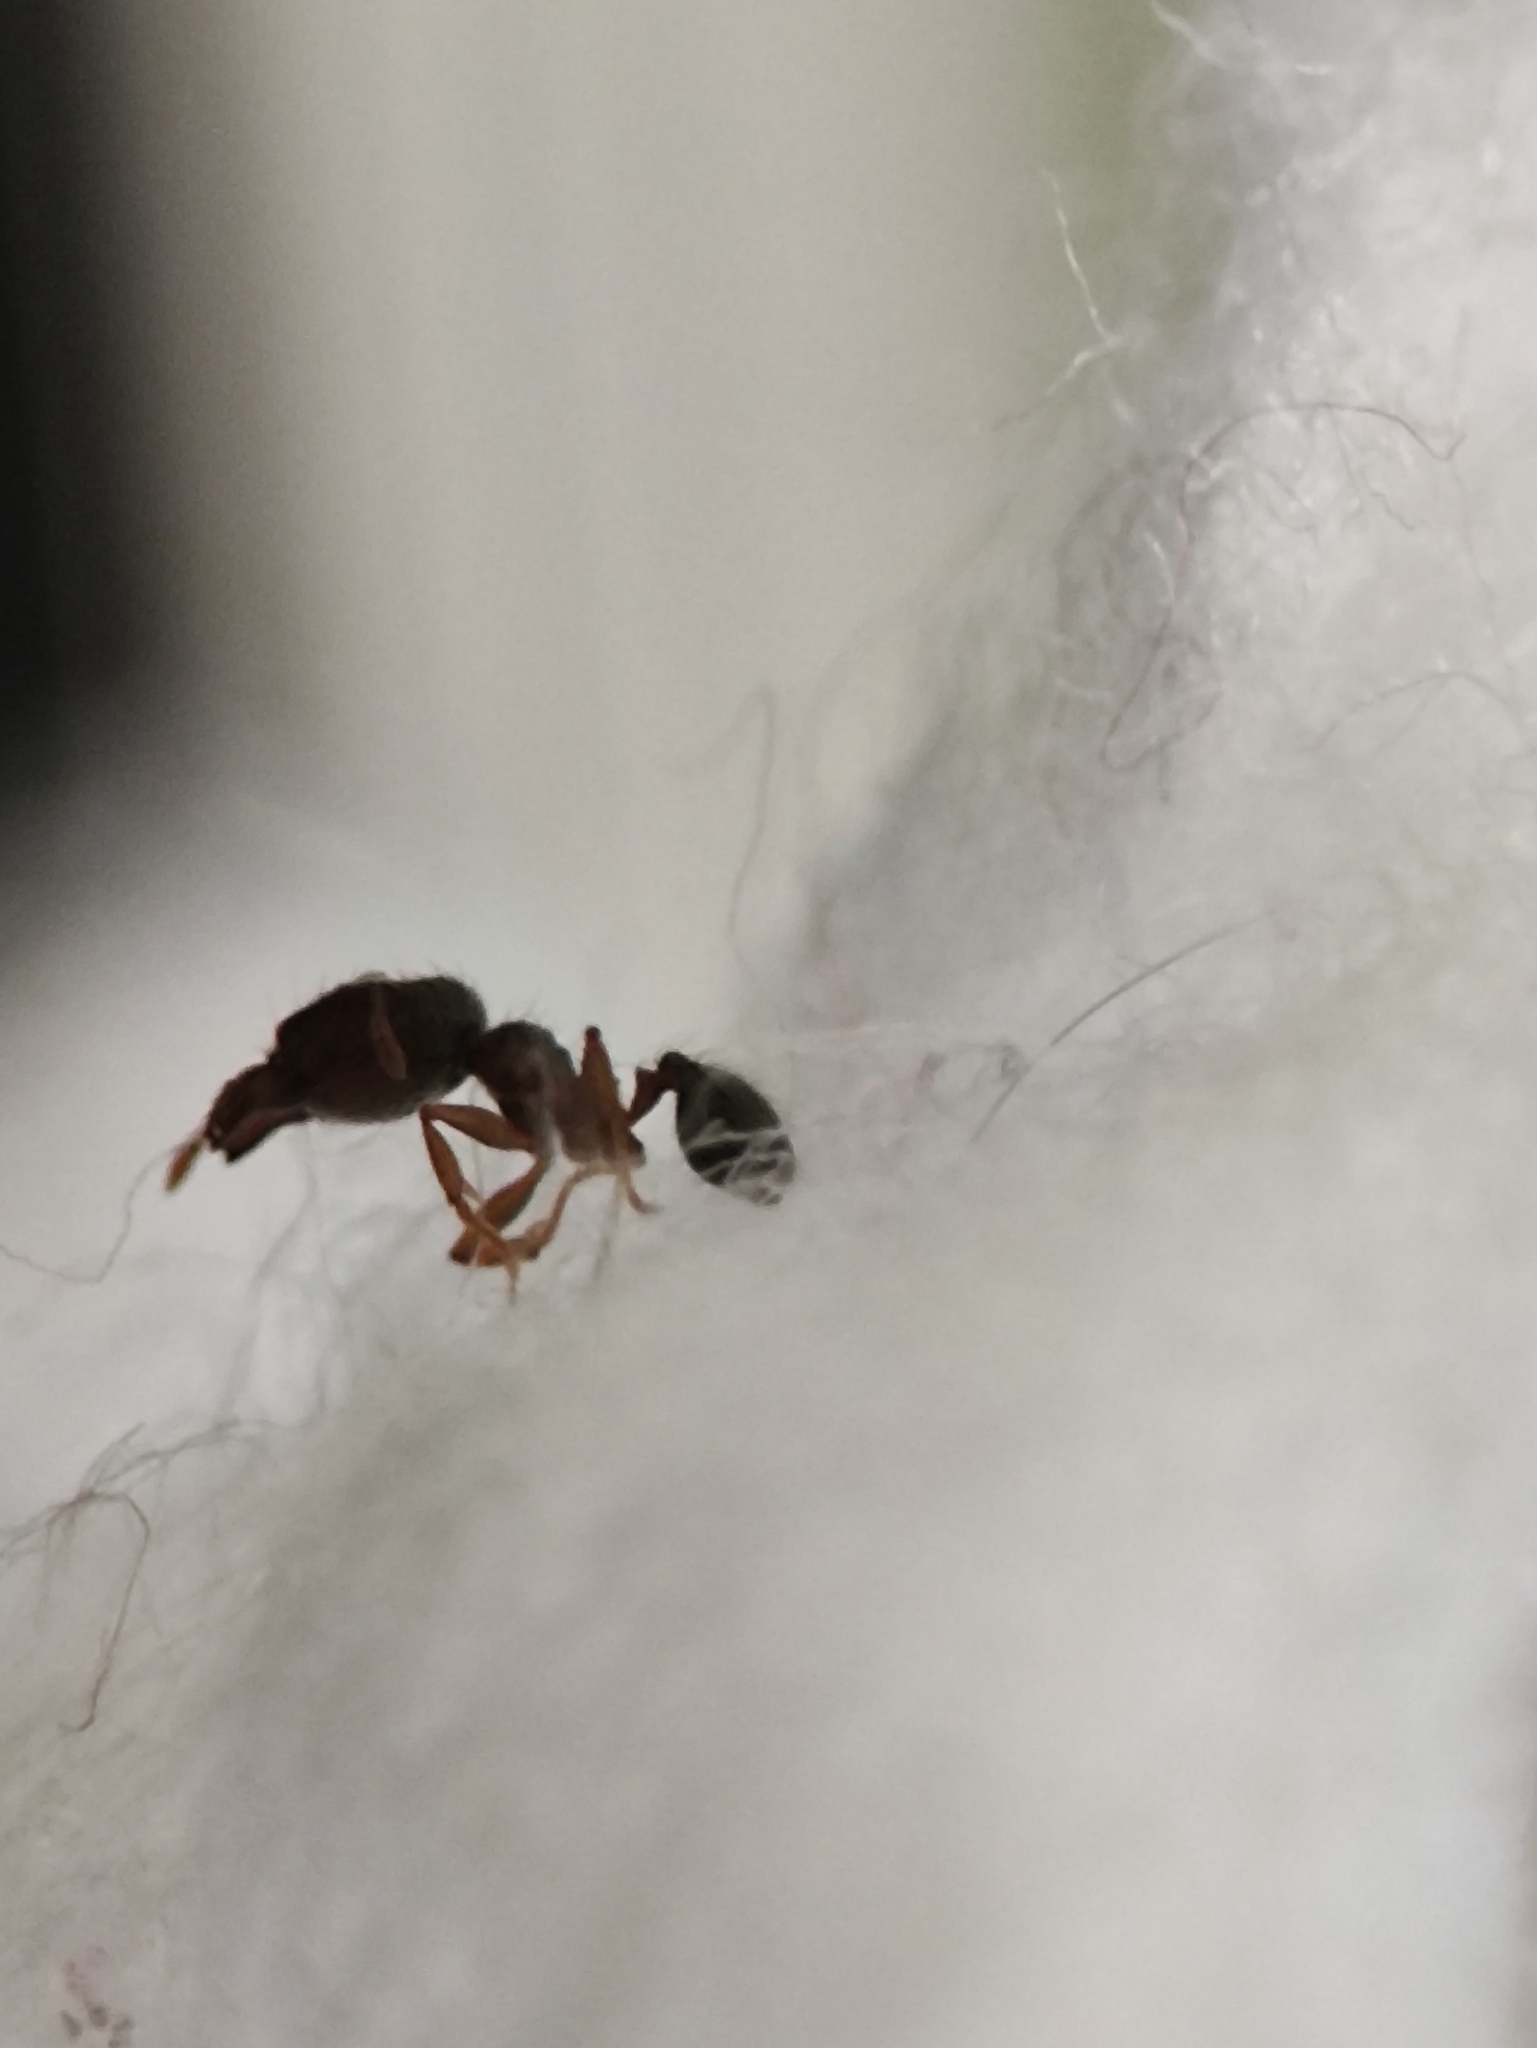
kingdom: Animalia
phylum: Arthropoda
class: Insecta
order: Hymenoptera
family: Formicidae
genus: Pheidole
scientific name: Pheidole parva
